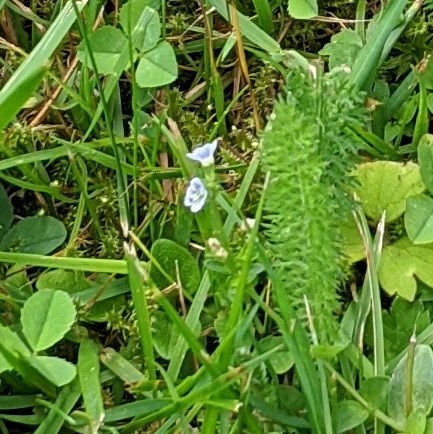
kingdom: Plantae
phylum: Tracheophyta
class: Magnoliopsida
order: Lamiales
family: Plantaginaceae
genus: Veronica
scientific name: Veronica serpyllifolia
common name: Thyme-leaved speedwell
